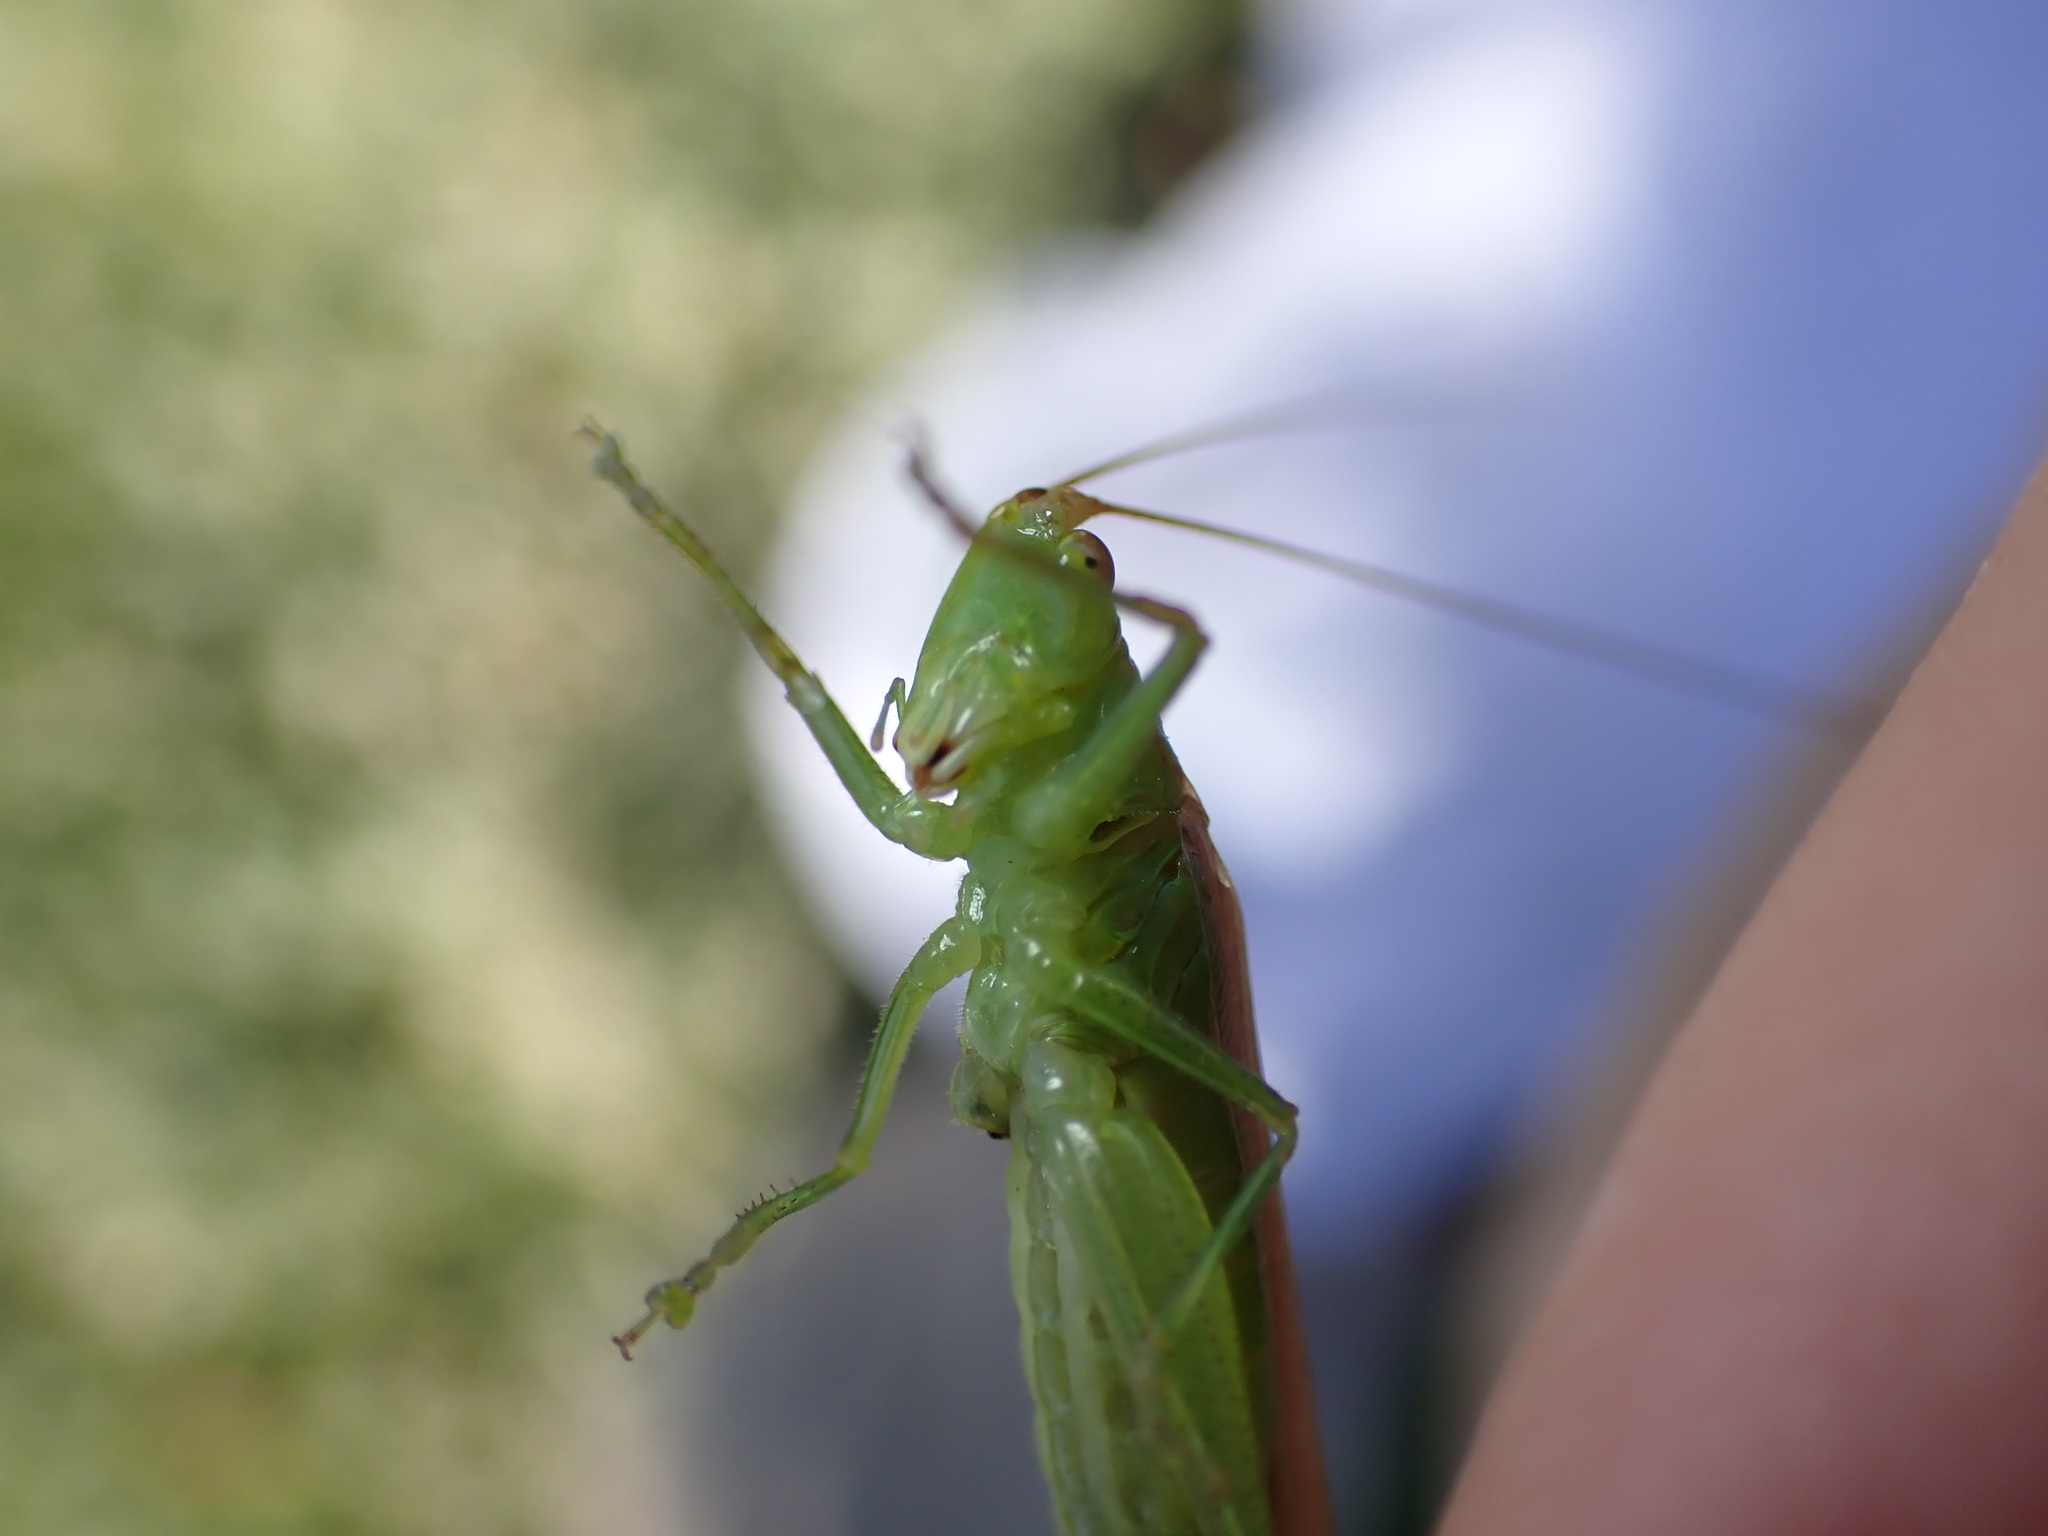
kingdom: Animalia
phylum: Arthropoda
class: Insecta
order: Orthoptera
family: Tettigoniidae
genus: Conocephalus
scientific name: Conocephalus conocephalus
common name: African meadow katydid
